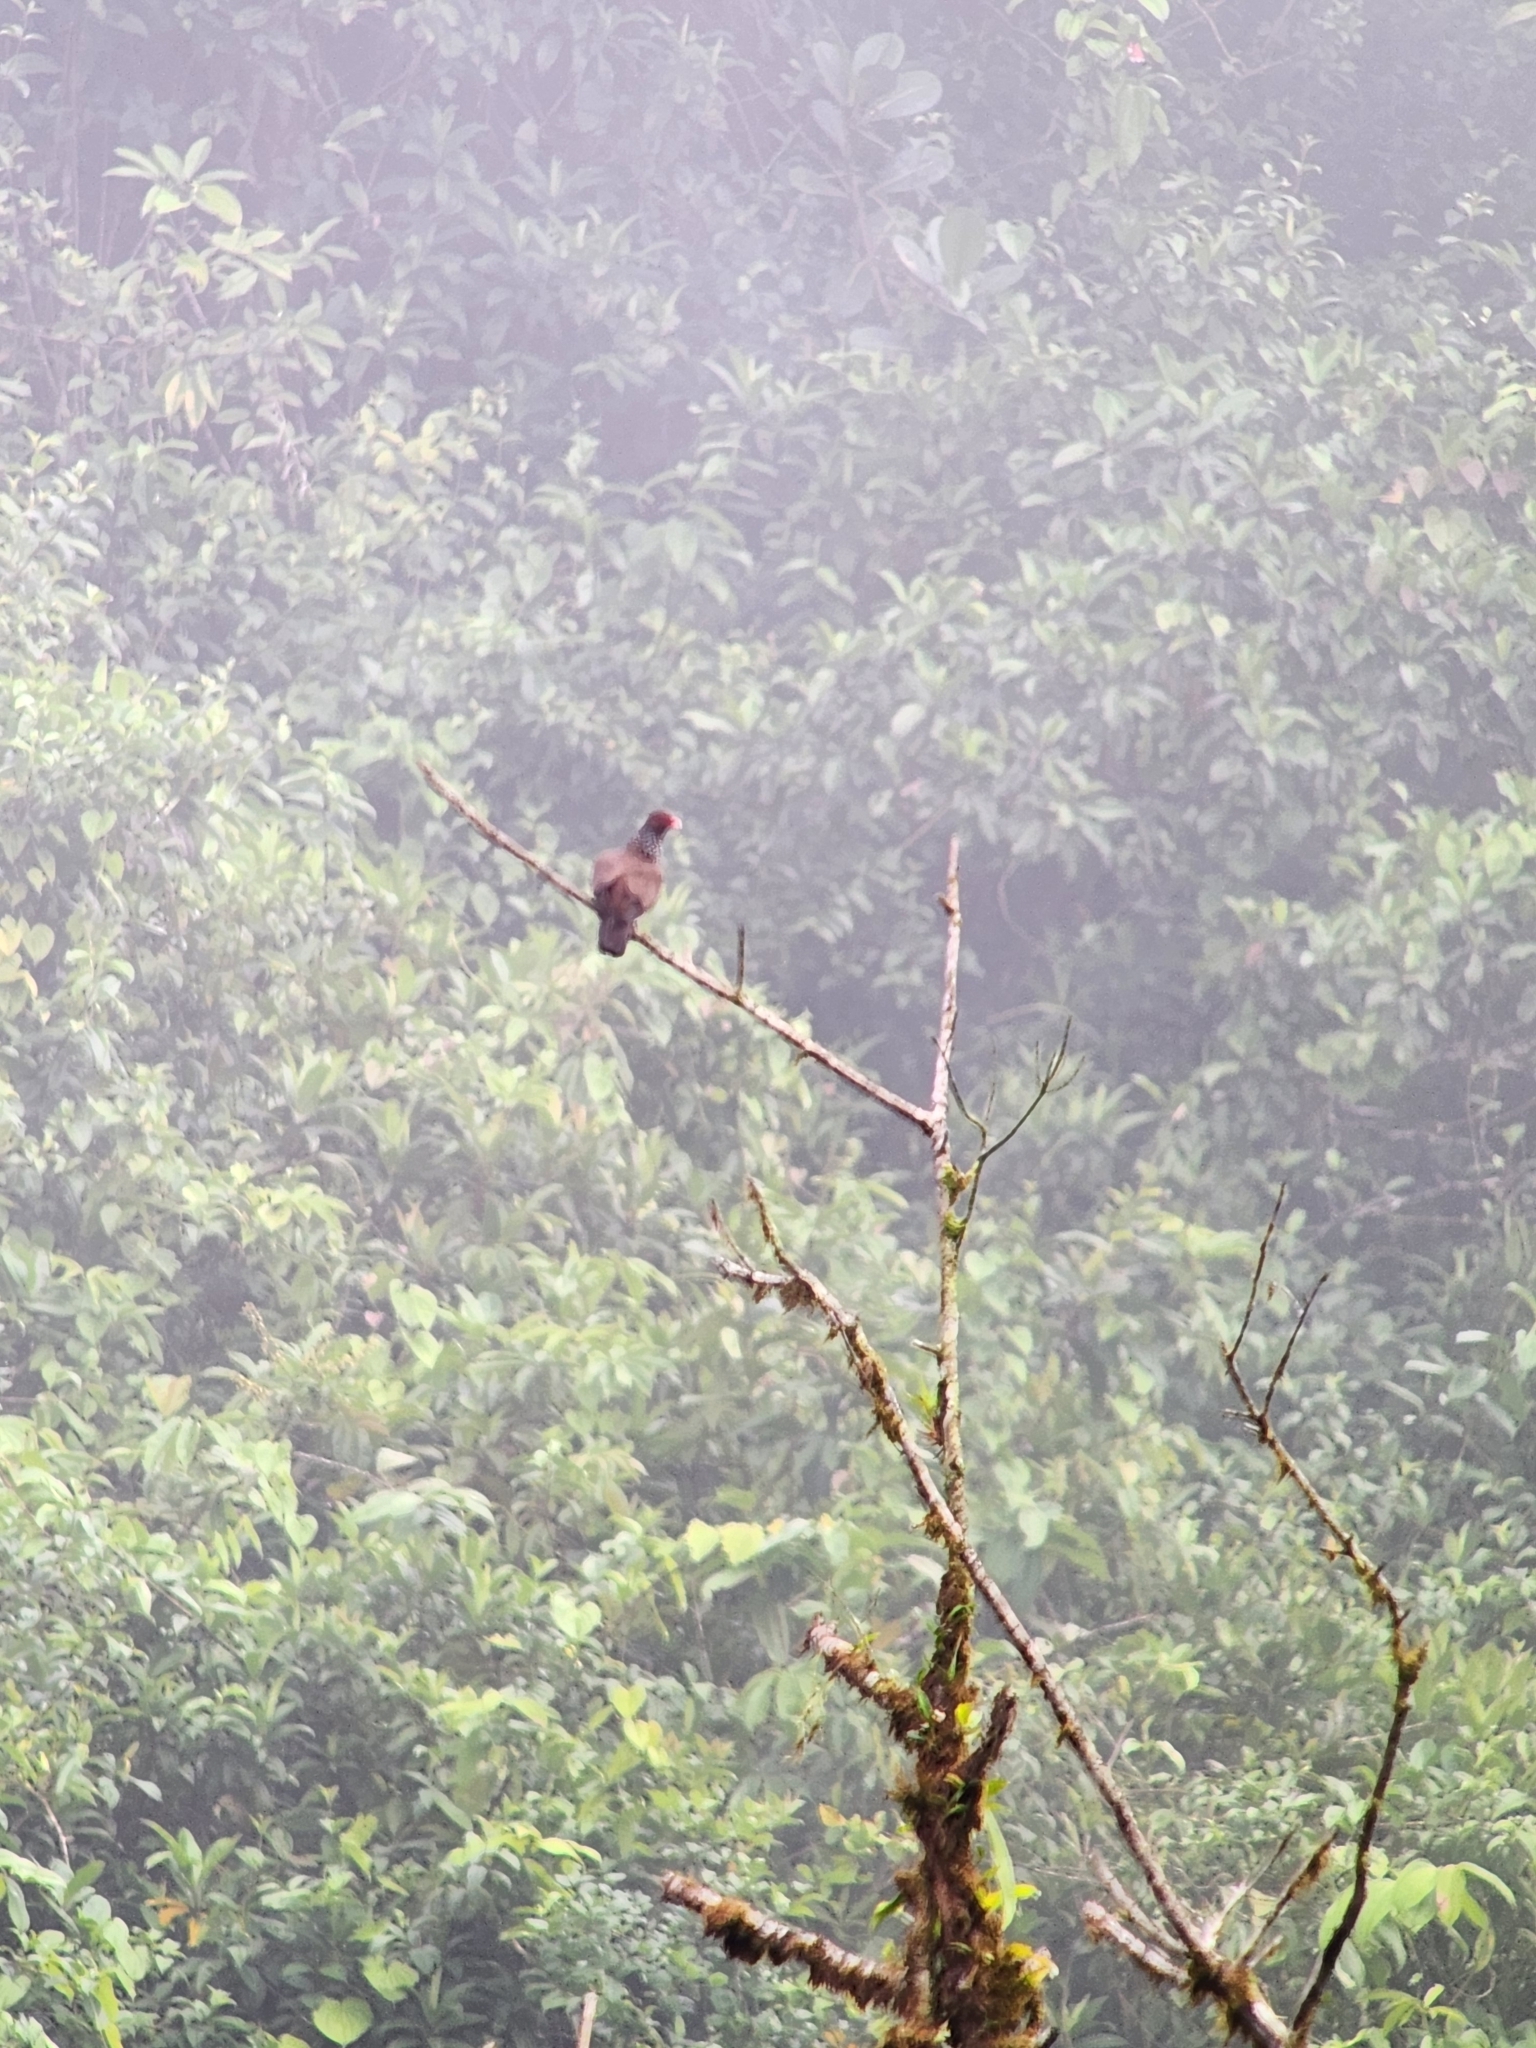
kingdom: Animalia
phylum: Chordata
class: Aves
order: Columbiformes
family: Columbidae
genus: Patagioenas
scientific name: Patagioenas speciosa
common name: Scaled pigeon
